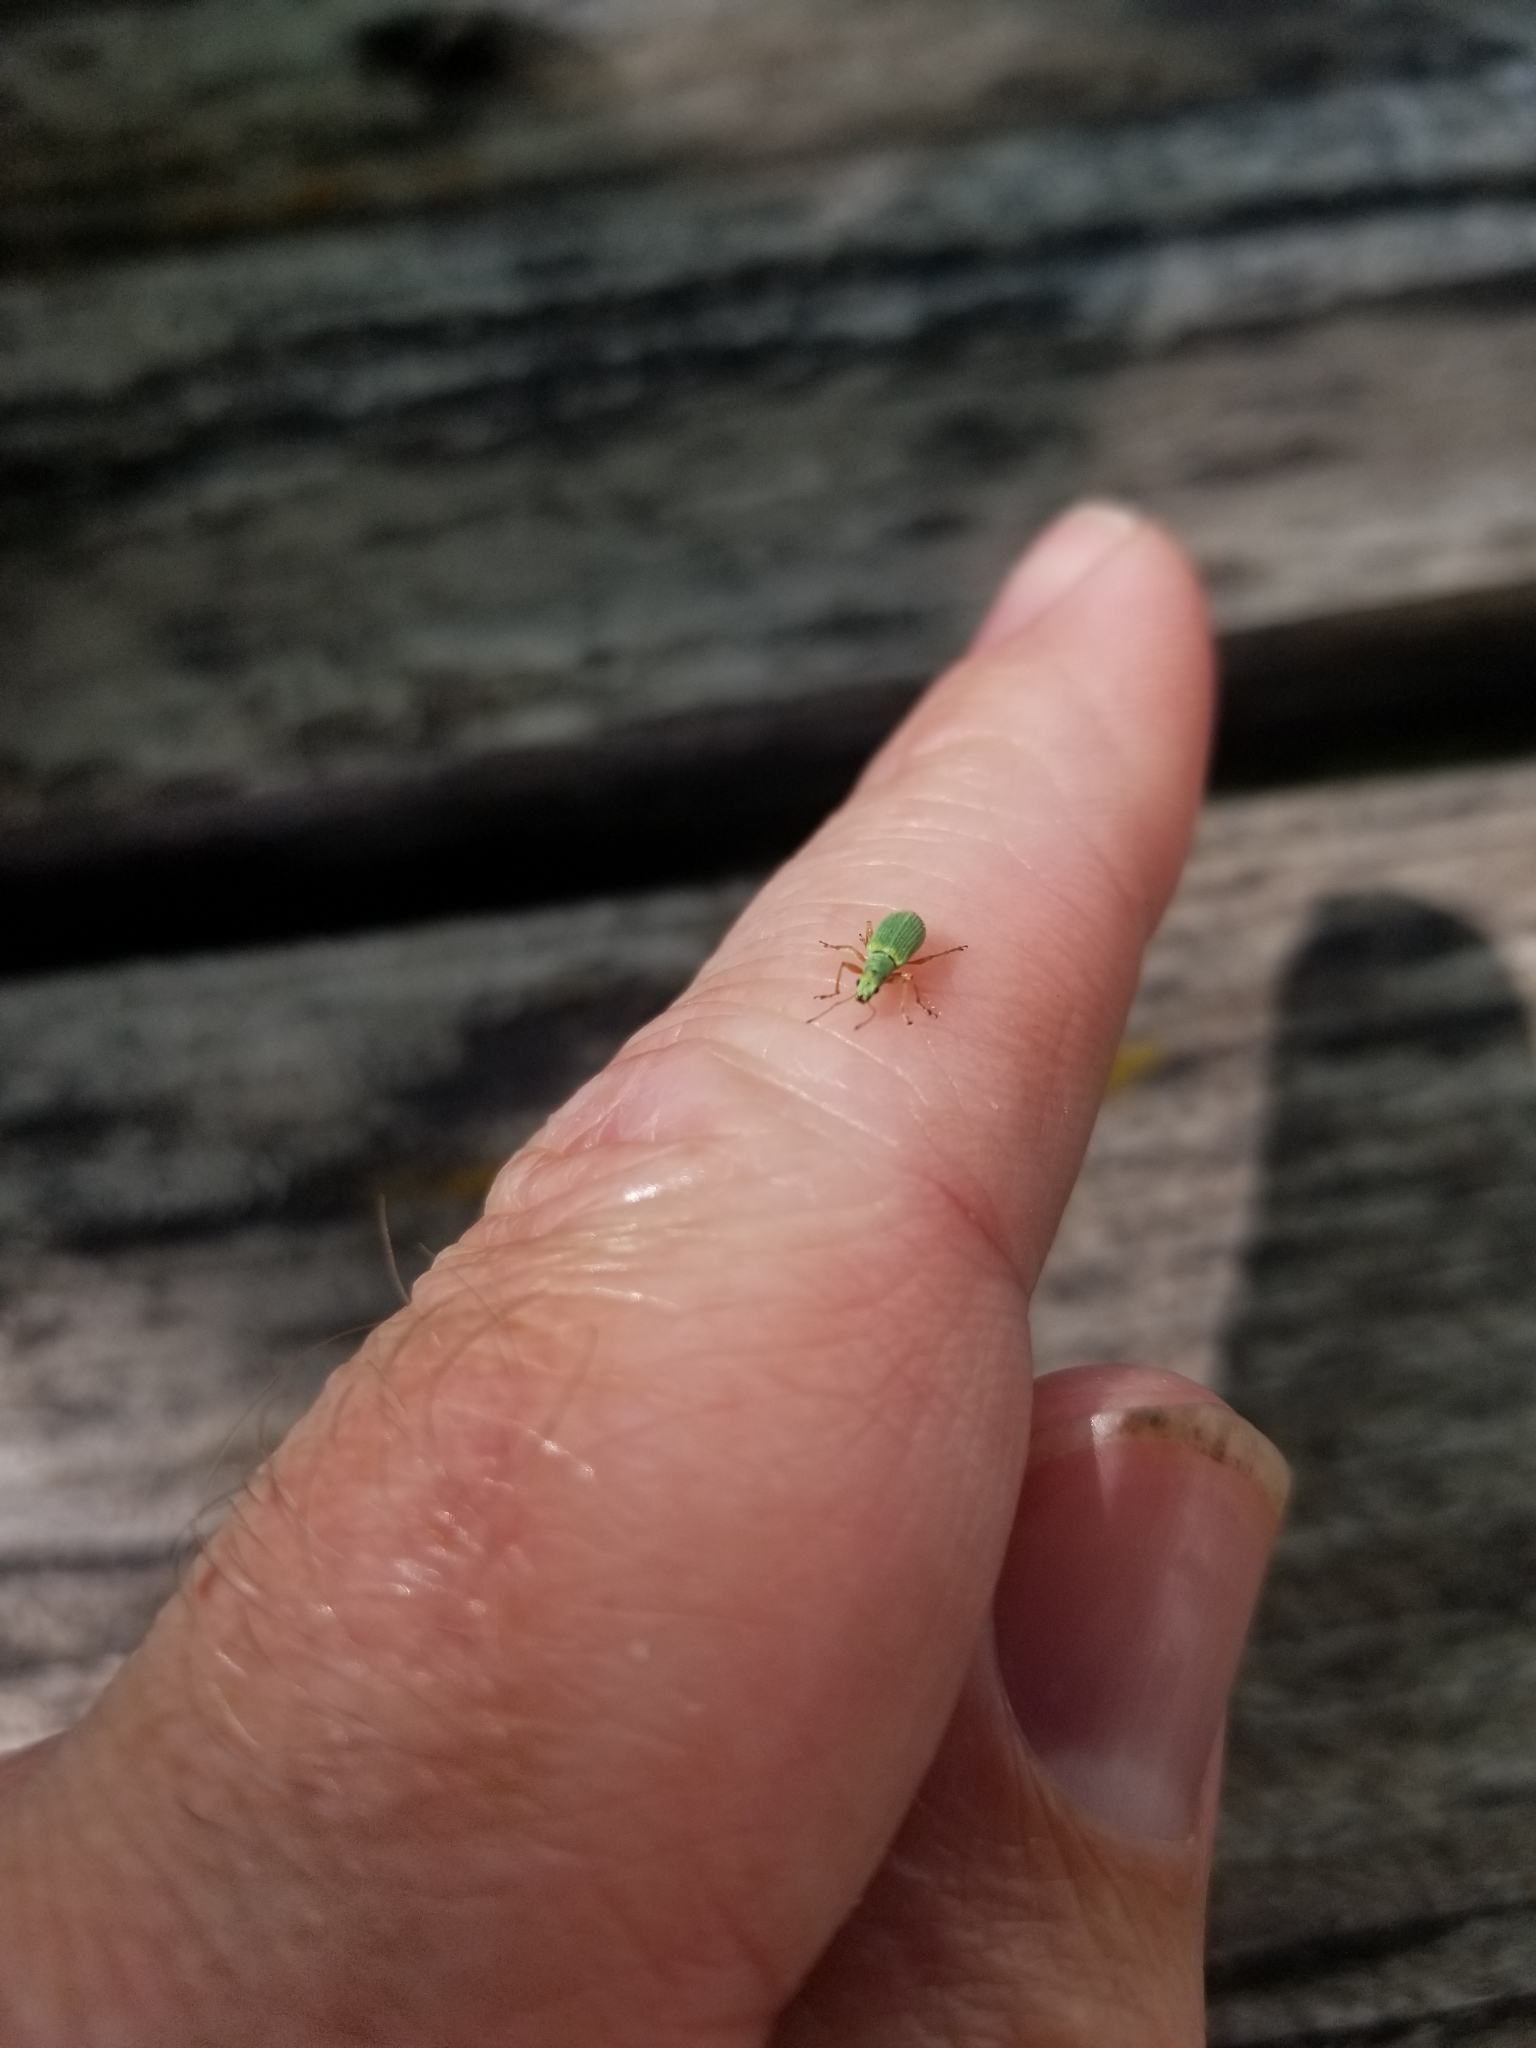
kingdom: Animalia
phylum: Arthropoda
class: Insecta
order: Coleoptera
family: Curculionidae
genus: Polydrusus
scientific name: Polydrusus impressifrons
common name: Weevil
